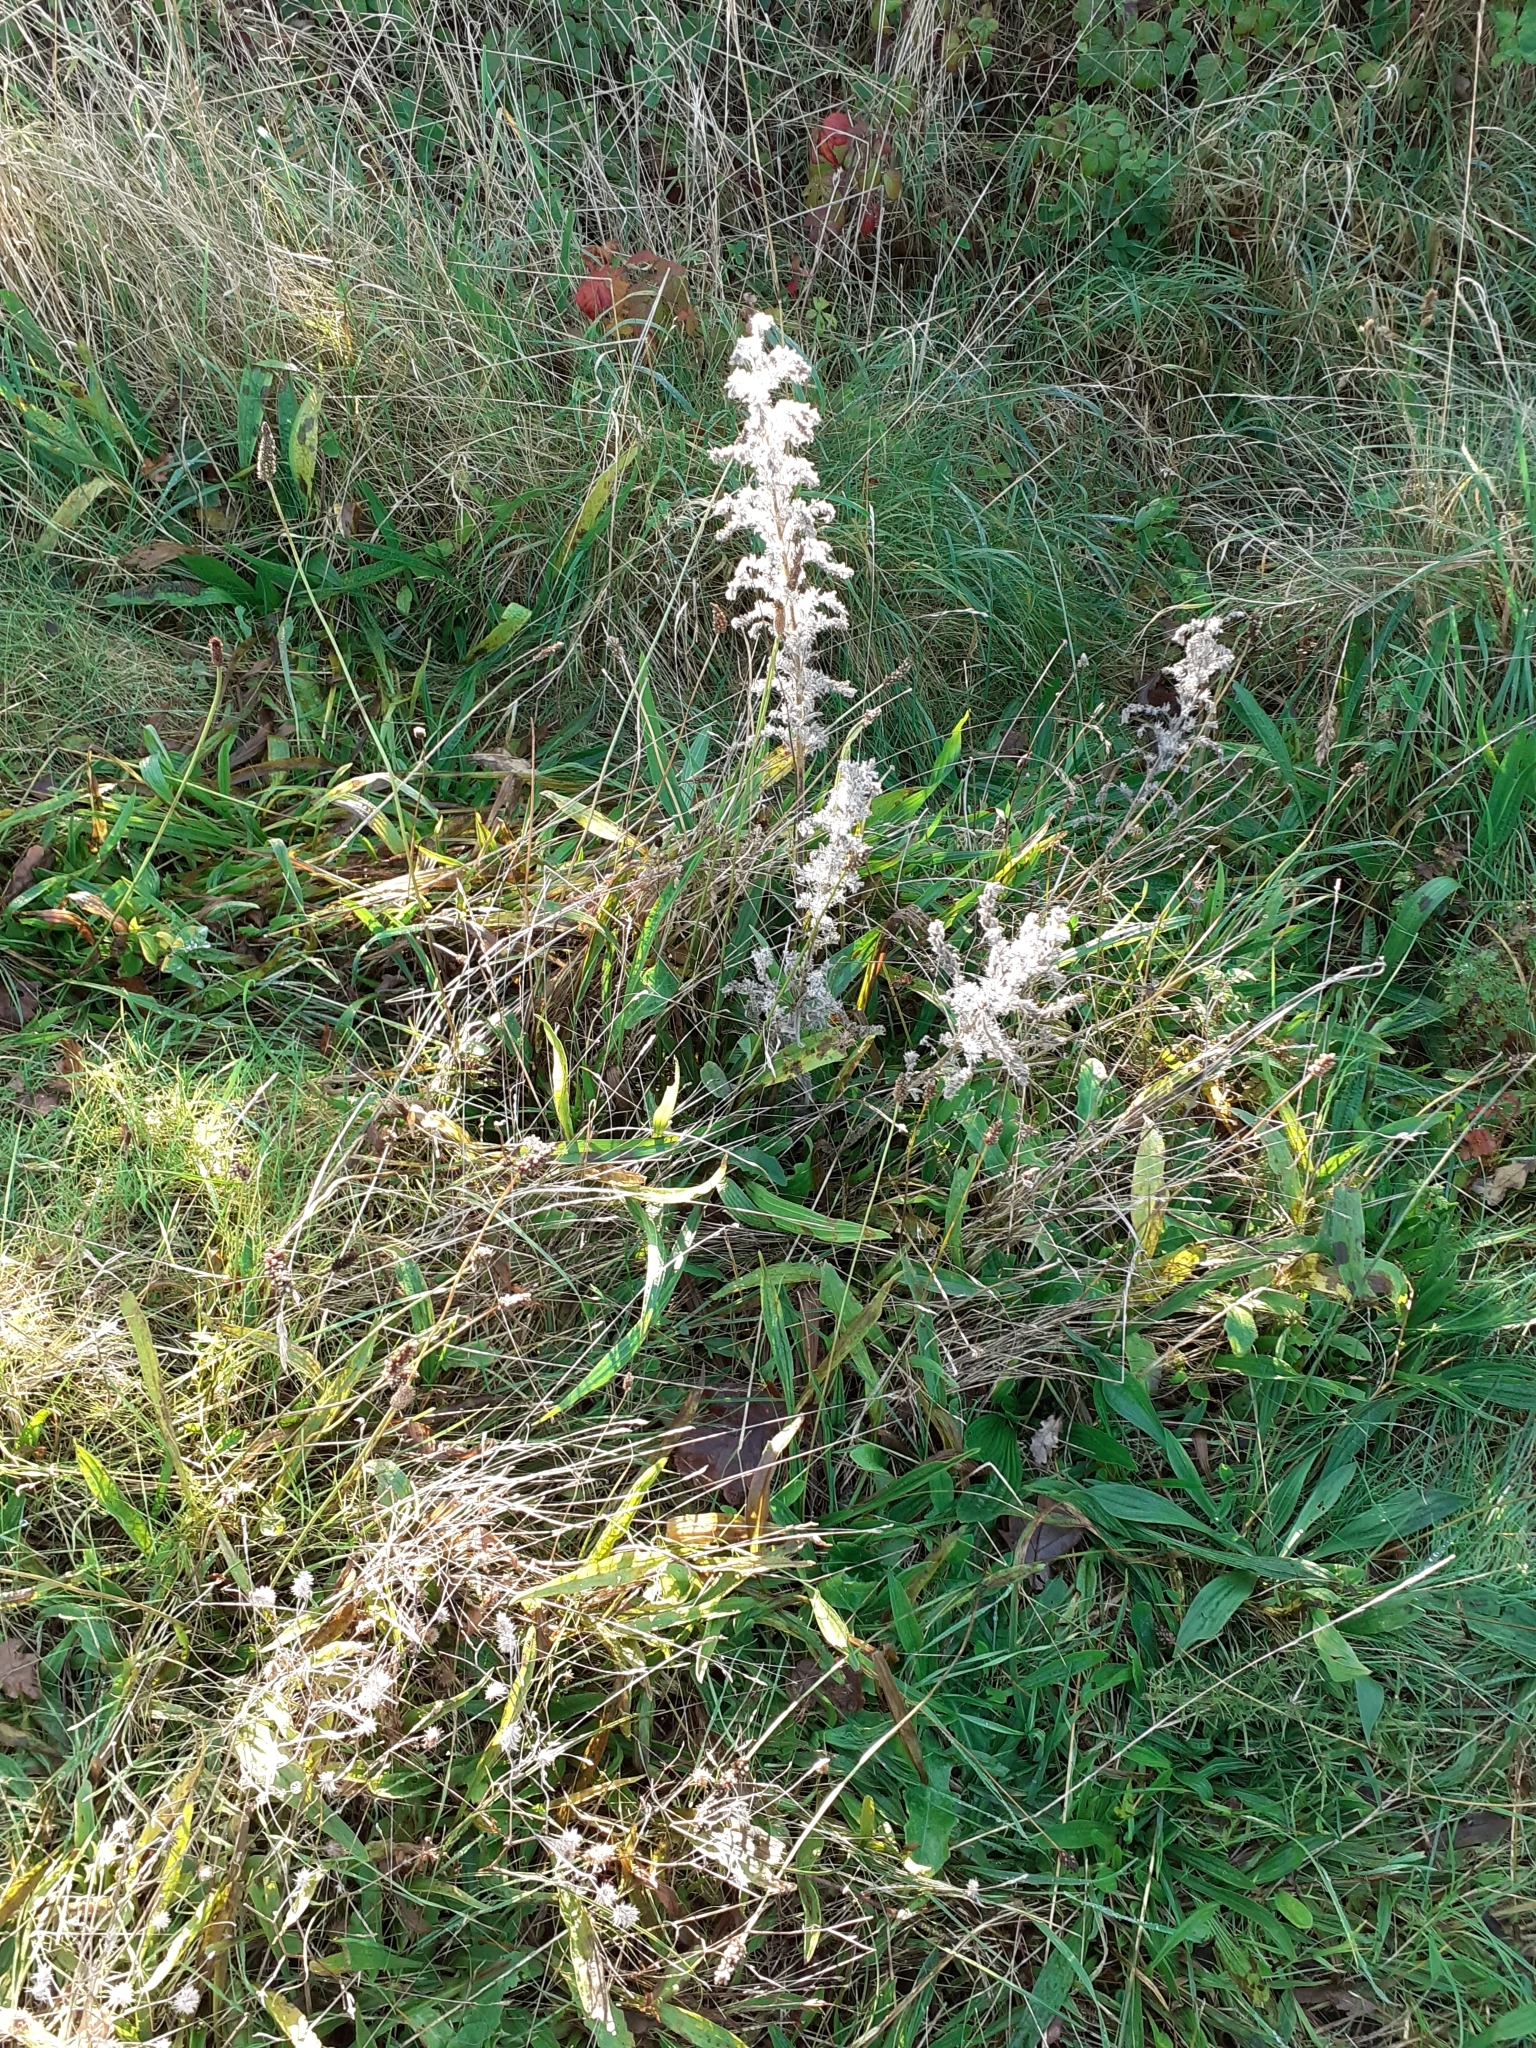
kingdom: Plantae
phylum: Tracheophyta
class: Magnoliopsida
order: Boraginales
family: Boraginaceae
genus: Echium
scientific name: Echium vulgare
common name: Common viper's bugloss
